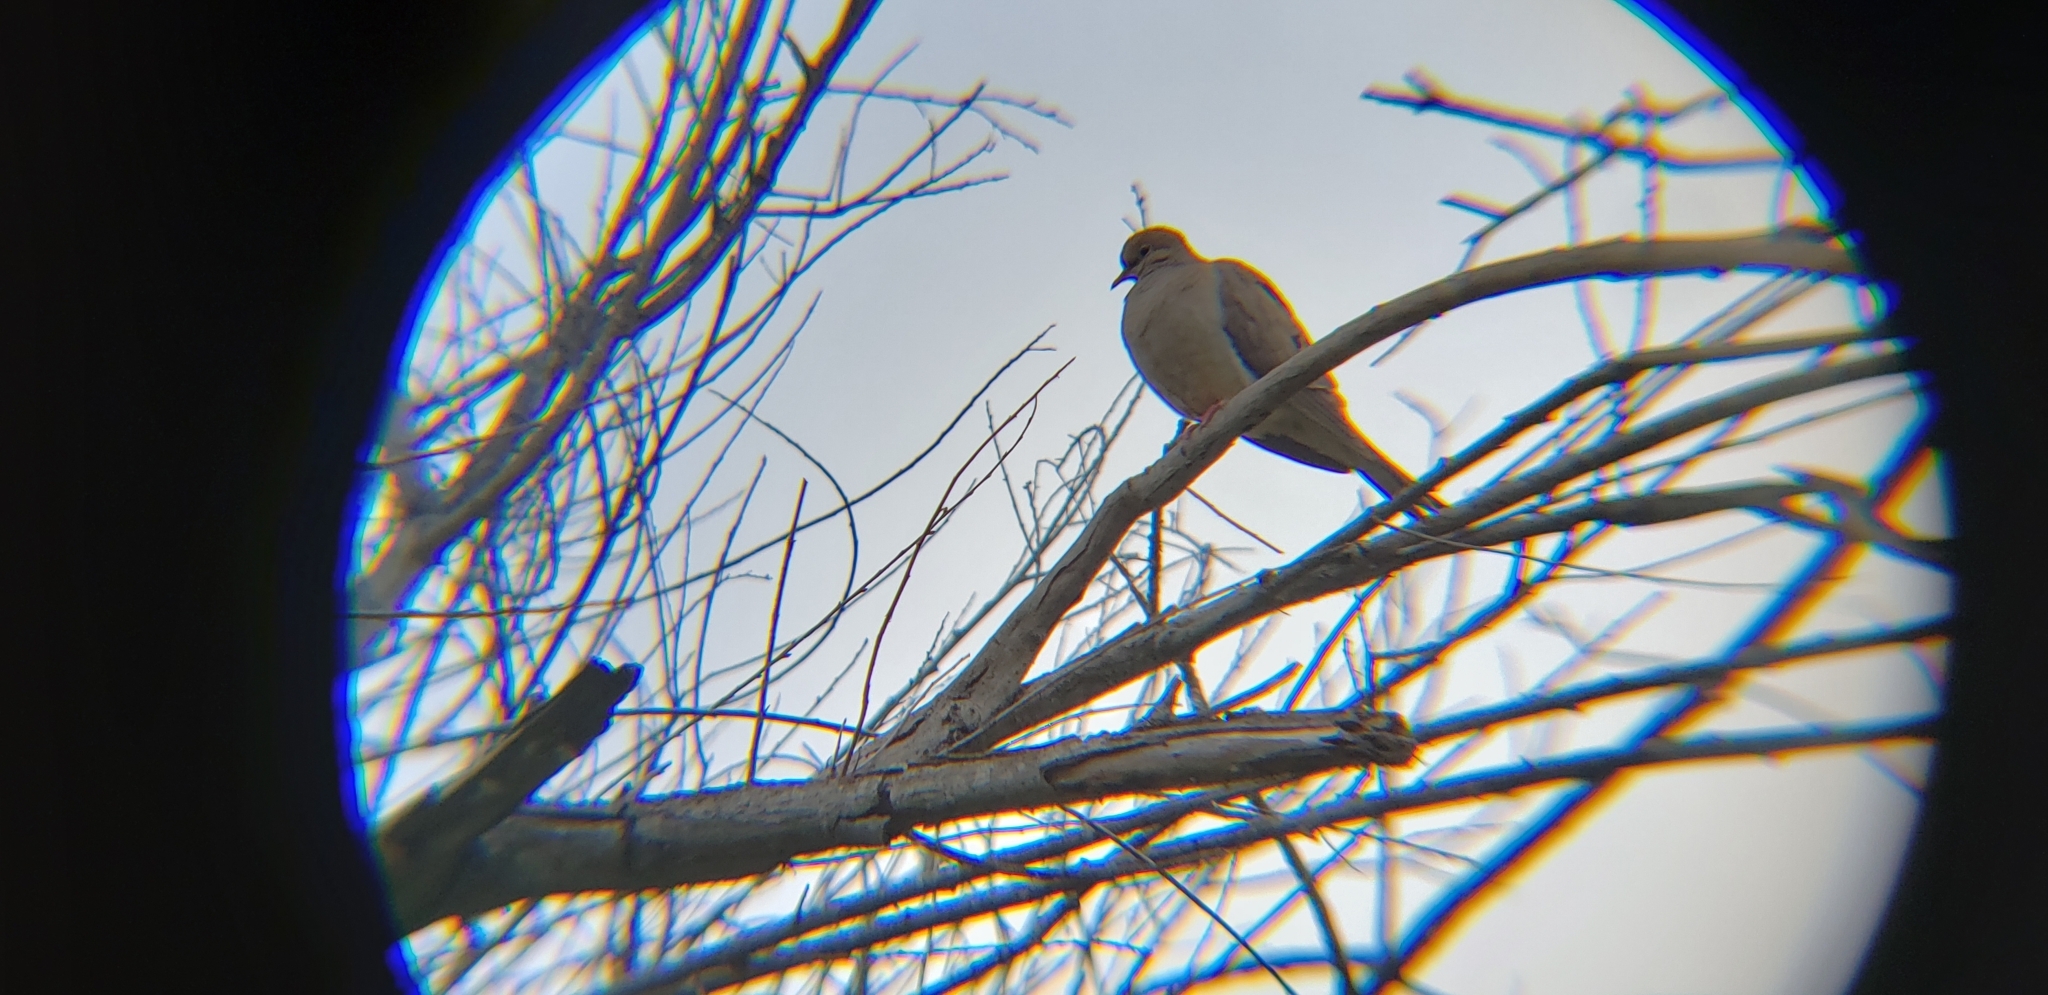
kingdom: Animalia
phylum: Chordata
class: Aves
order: Columbiformes
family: Columbidae
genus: Zenaida
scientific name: Zenaida macroura
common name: Mourning dove
